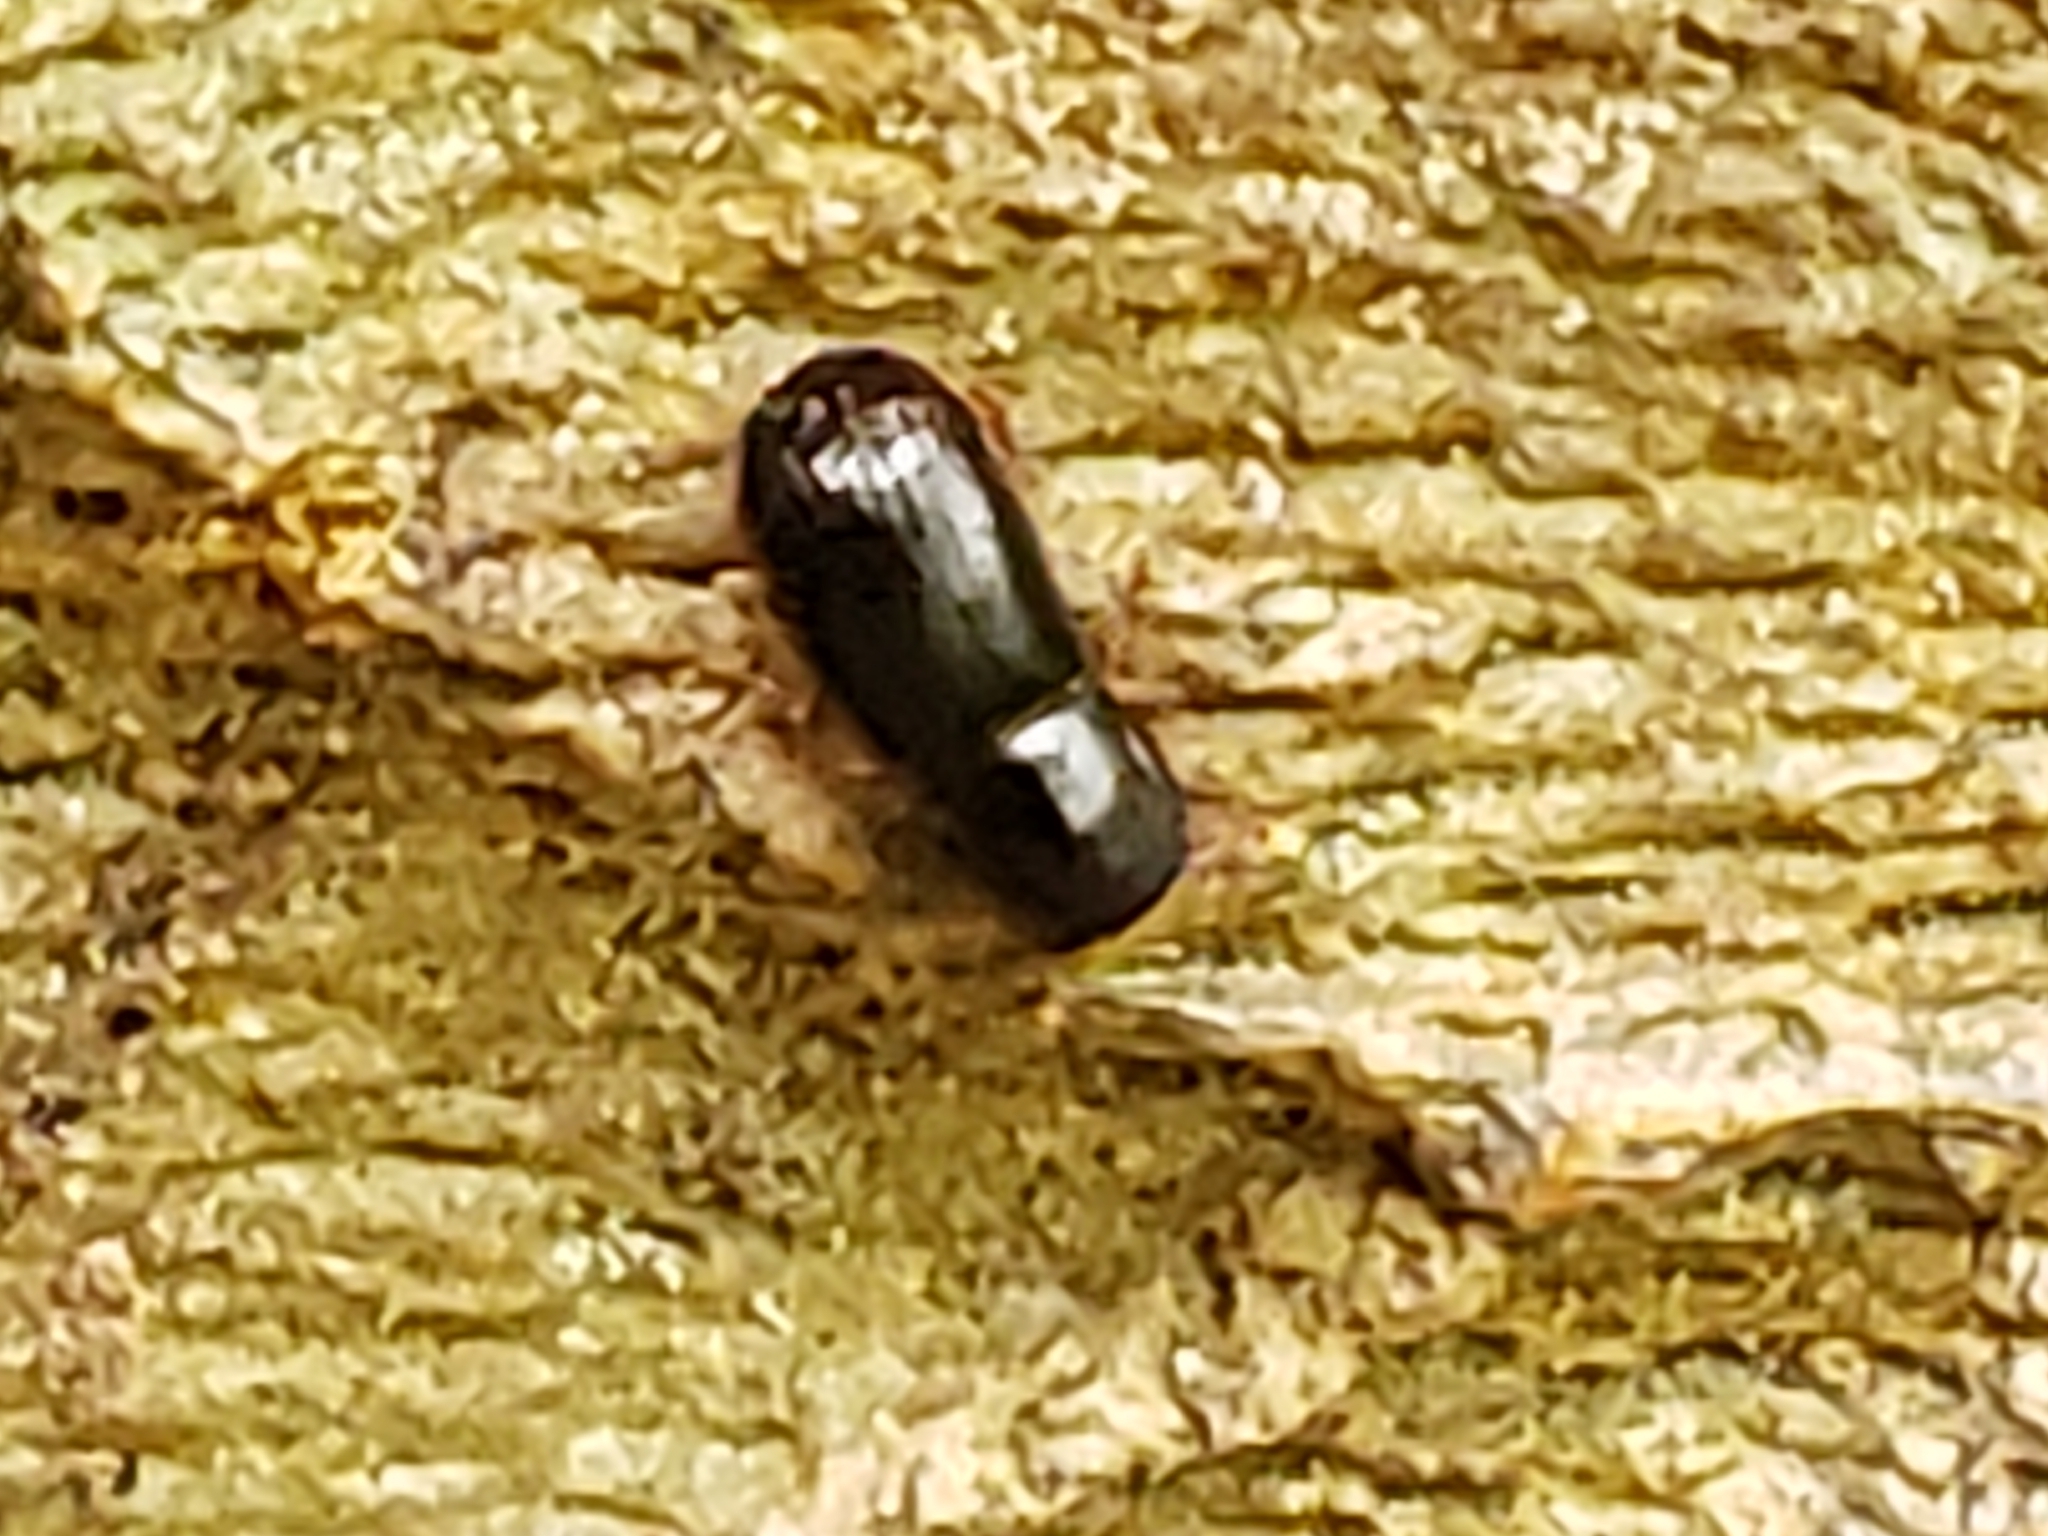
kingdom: Animalia
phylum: Arthropoda
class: Insecta
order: Coleoptera
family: Curculionidae
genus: Euwallacea
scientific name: Euwallacea validus
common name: Bark beetle
